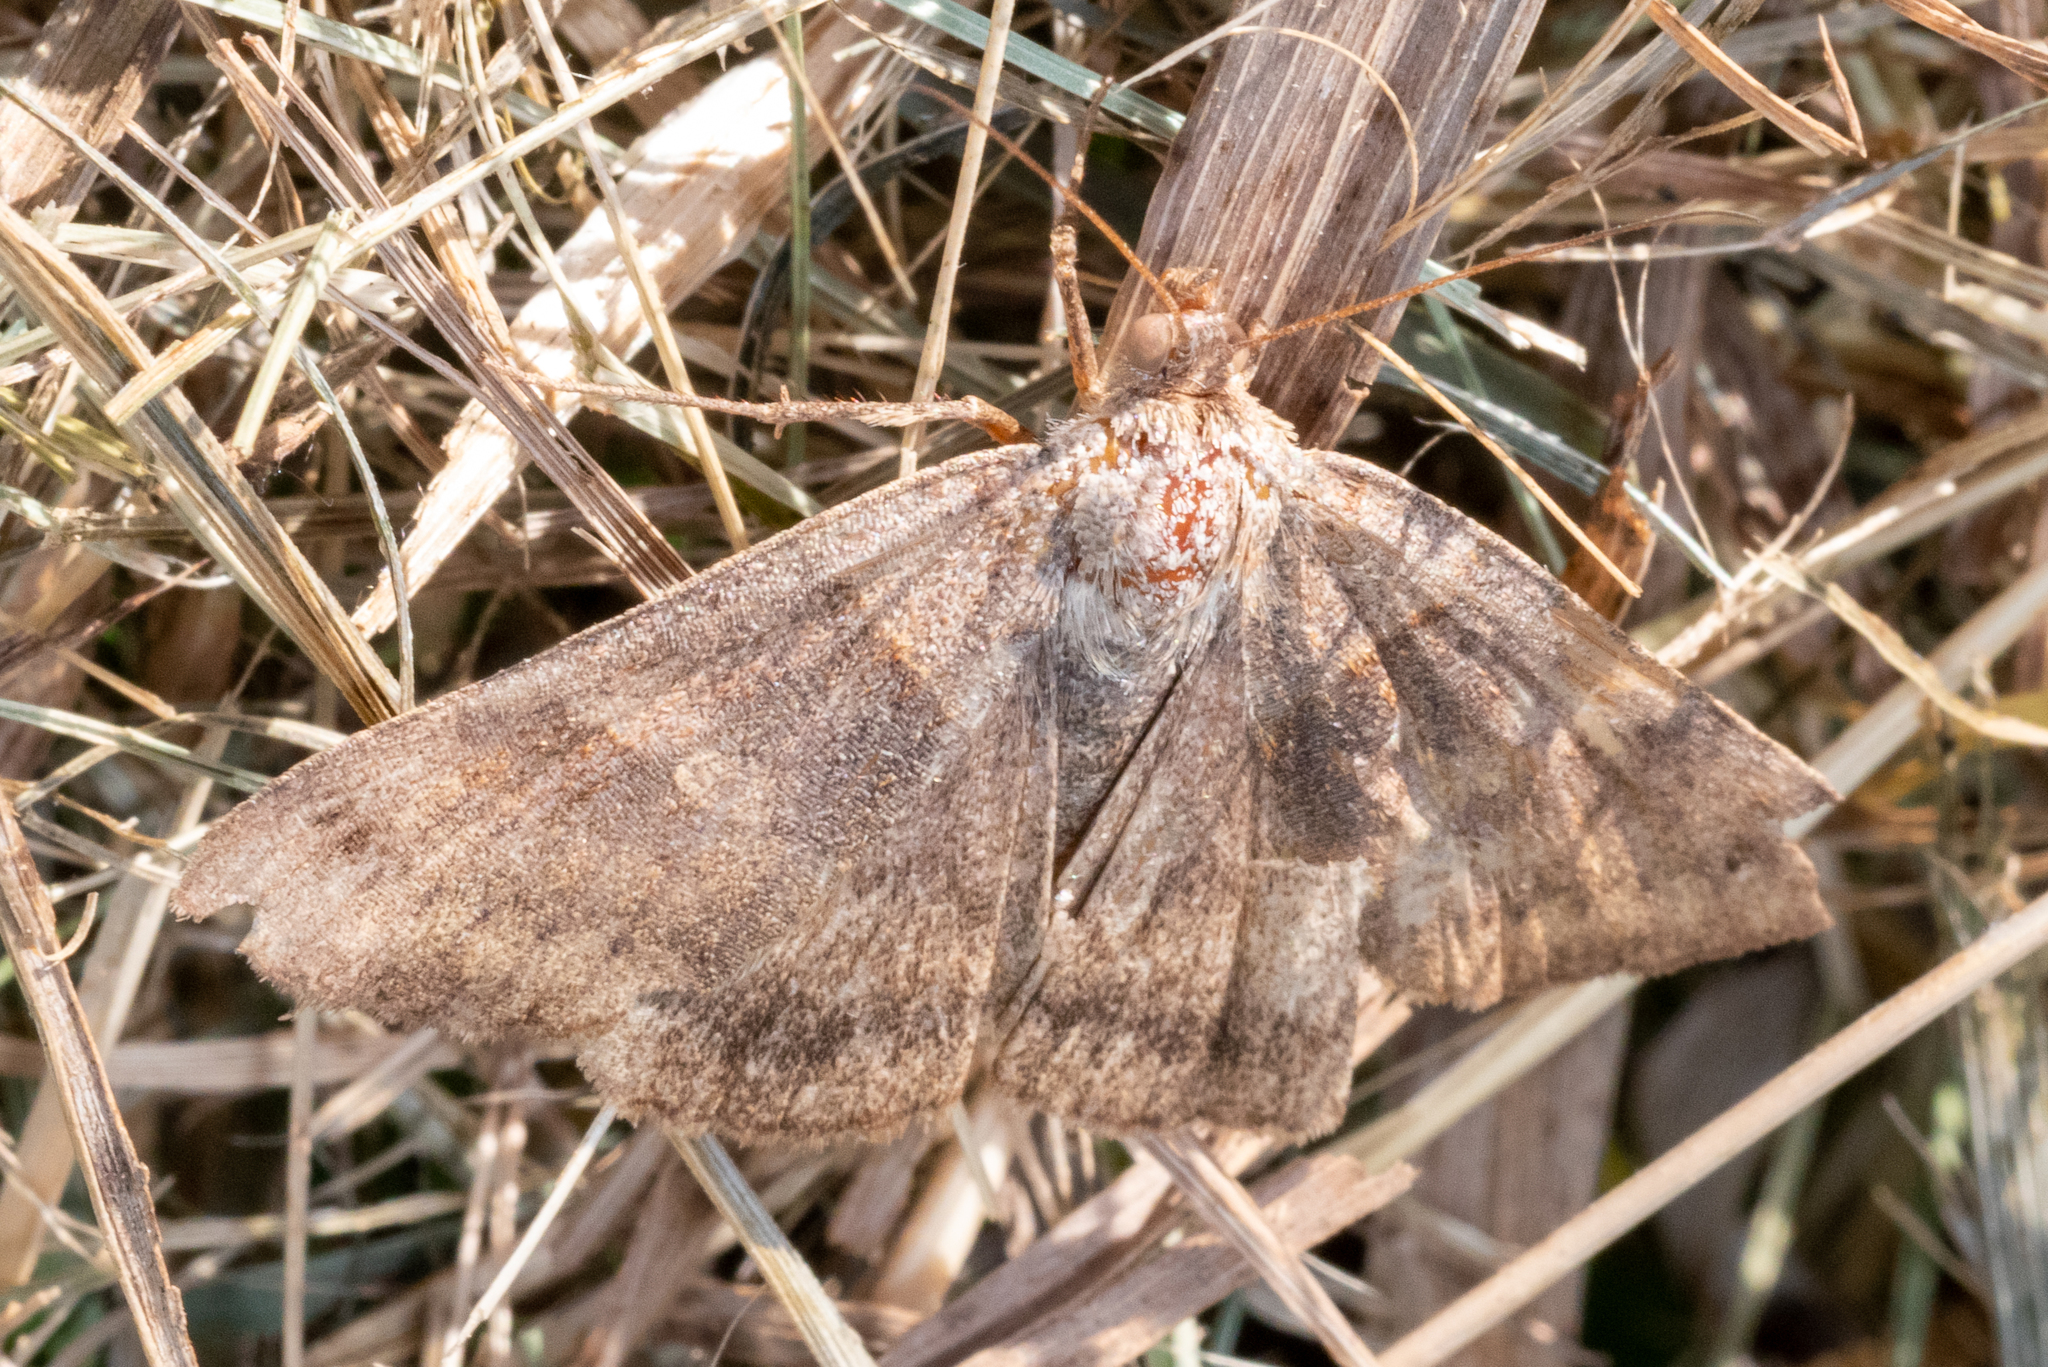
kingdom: Animalia
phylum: Arthropoda
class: Insecta
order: Lepidoptera
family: Erebidae
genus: Caenurgina
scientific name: Caenurgina crassiuscula
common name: Double-barred
